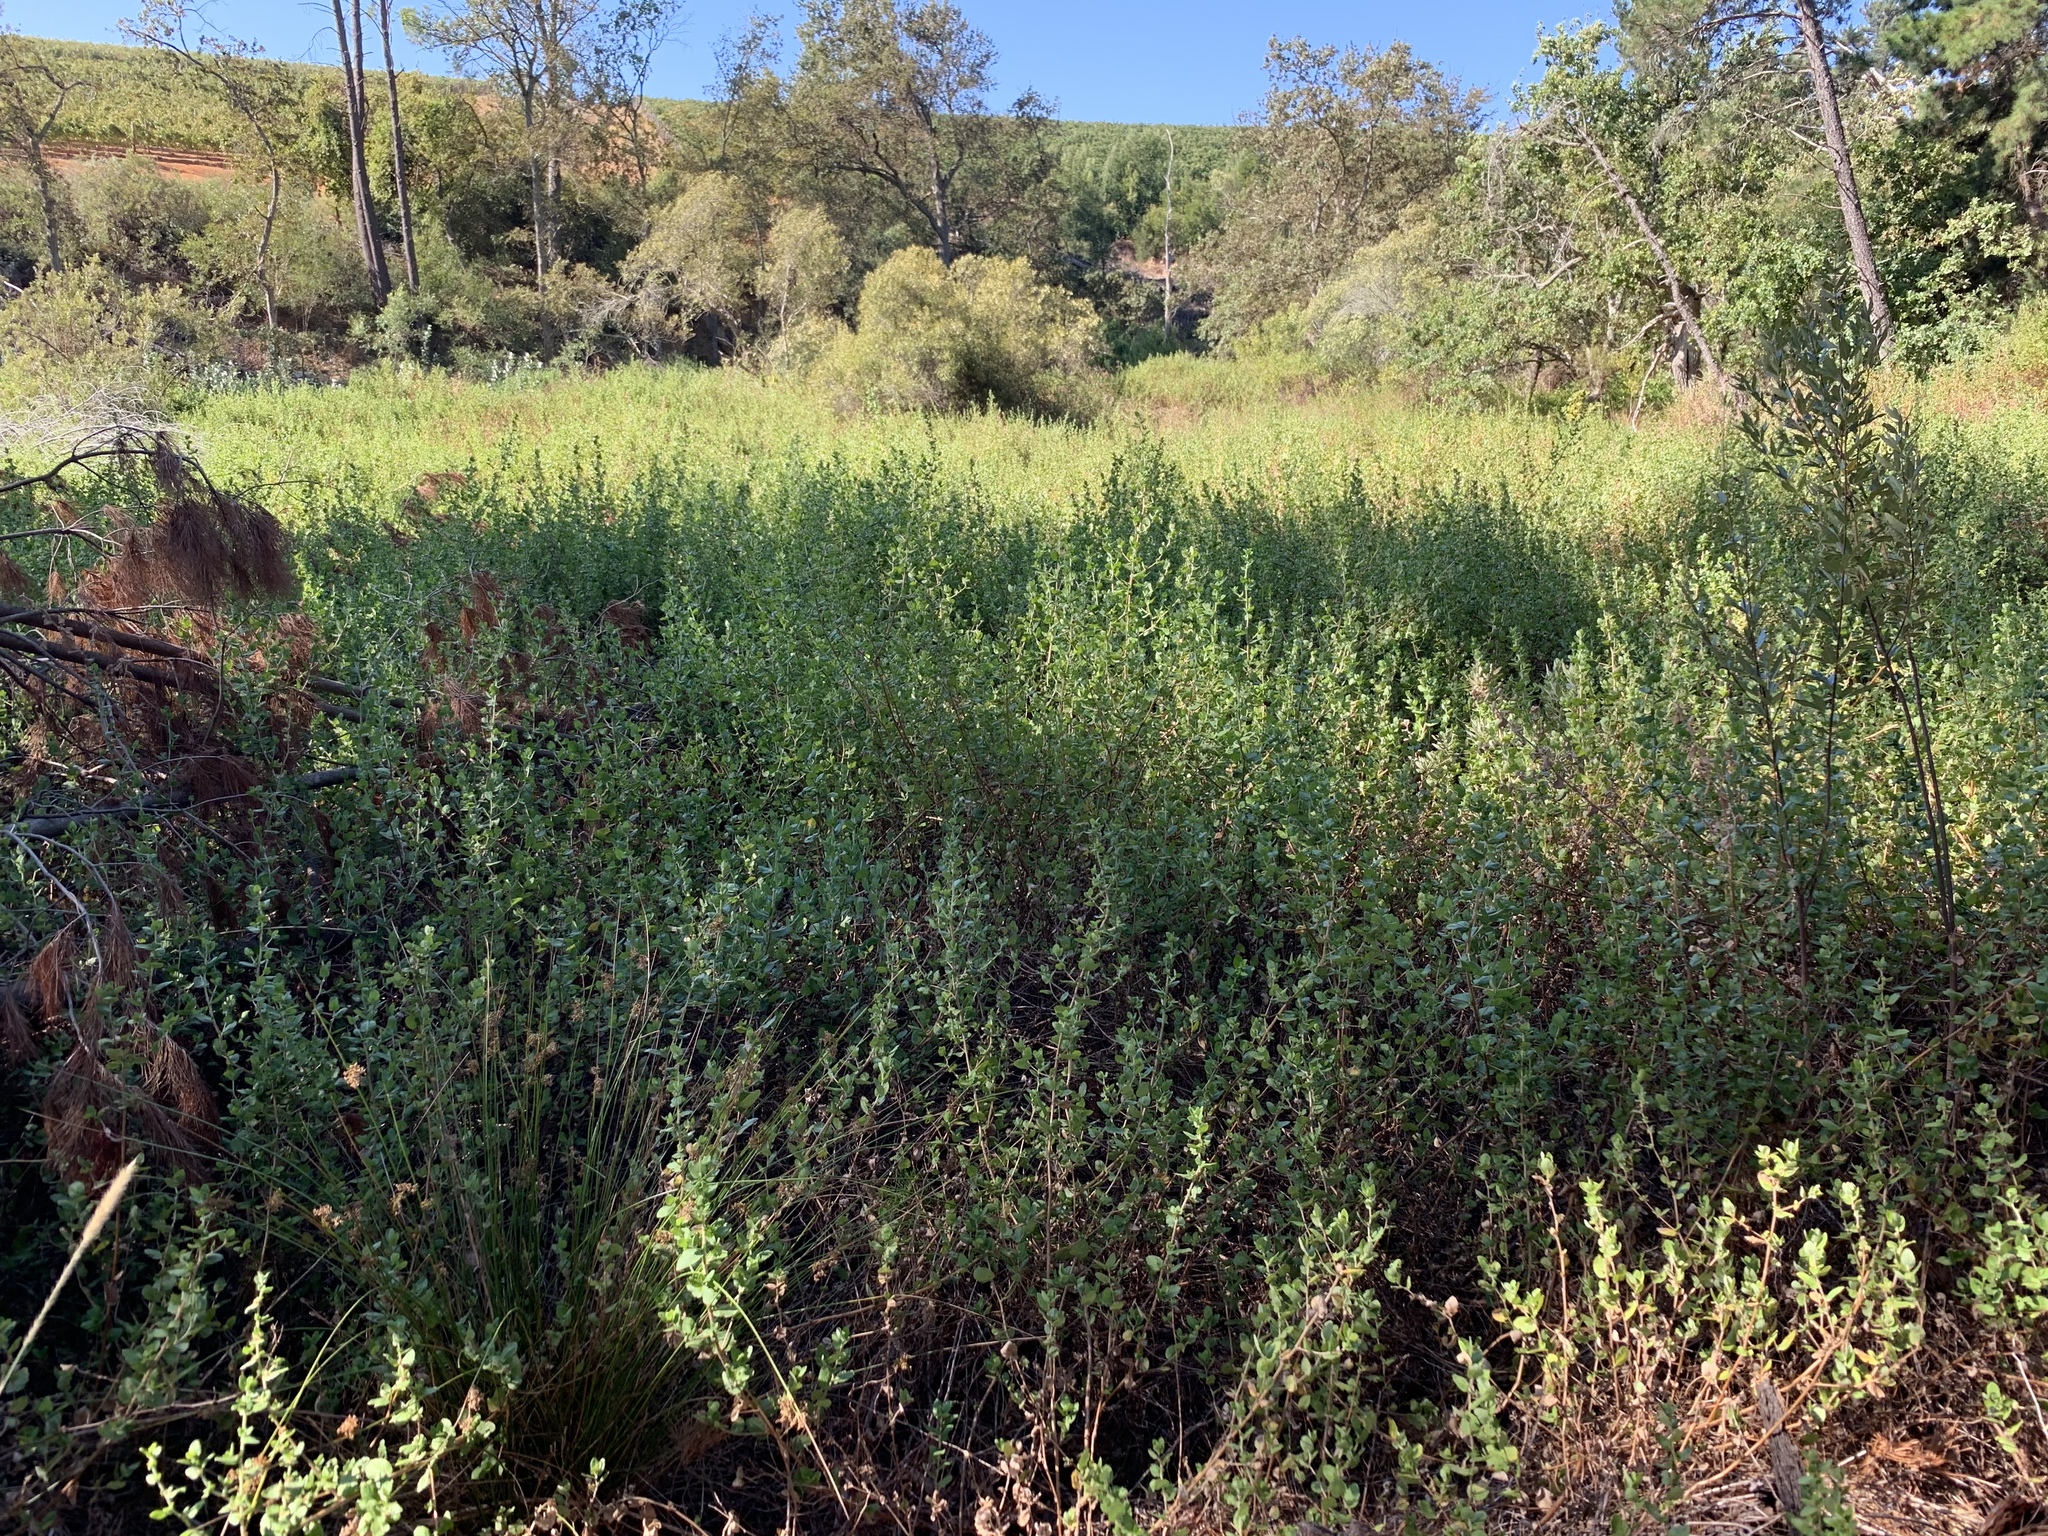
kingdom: Plantae
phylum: Tracheophyta
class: Magnoliopsida
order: Rosales
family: Rosaceae
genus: Cliffortia
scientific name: Cliffortia odorata
